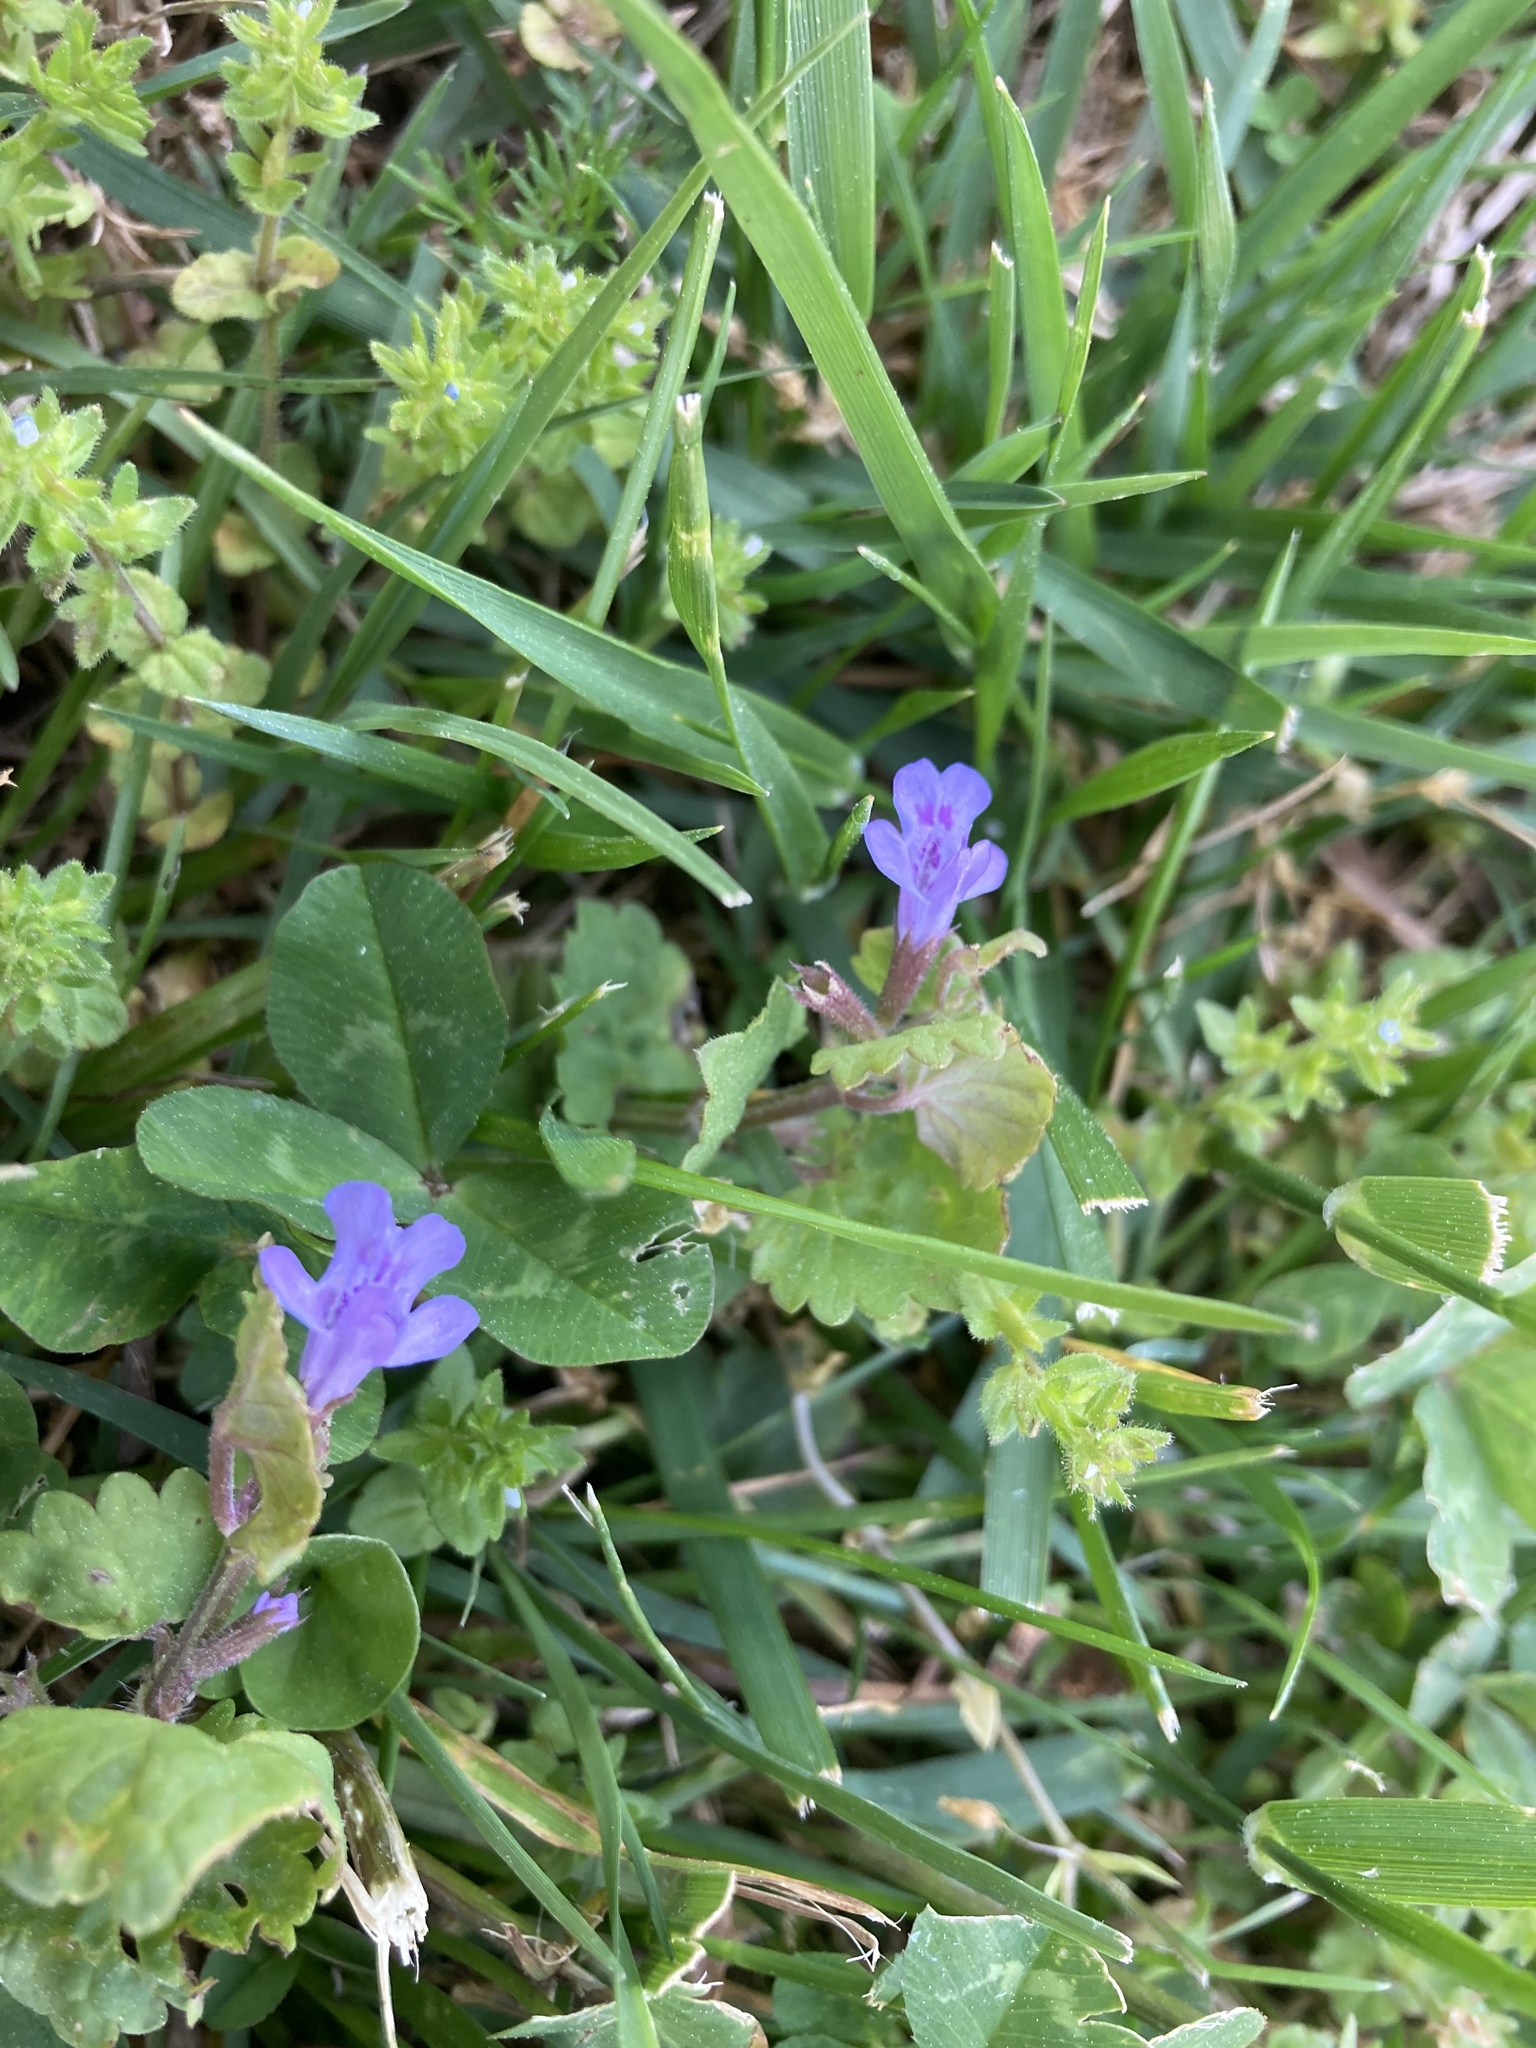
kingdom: Plantae
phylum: Tracheophyta
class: Magnoliopsida
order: Lamiales
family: Lamiaceae
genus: Glechoma
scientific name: Glechoma hederacea
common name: Ground ivy
